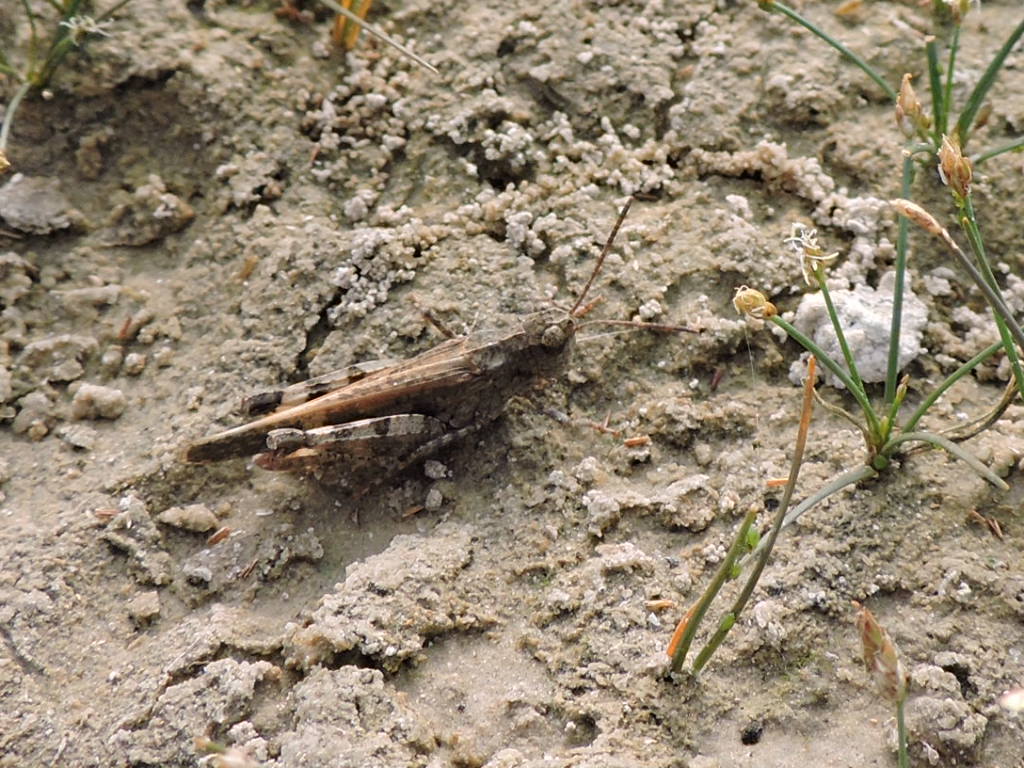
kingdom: Animalia
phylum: Arthropoda
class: Insecta
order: Orthoptera
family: Acrididae
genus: Nebulatettix
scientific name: Nebulatettix subgracilis
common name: Southwestern dusky grasshopper
